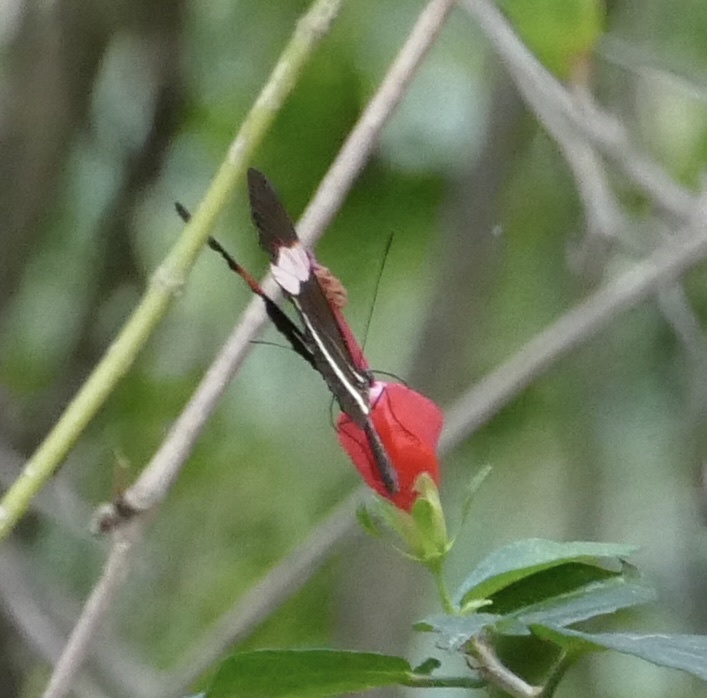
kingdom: Animalia
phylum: Arthropoda
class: Insecta
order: Lepidoptera
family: Nymphalidae
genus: Heliconius
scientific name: Heliconius erato
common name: Common patch longwing
